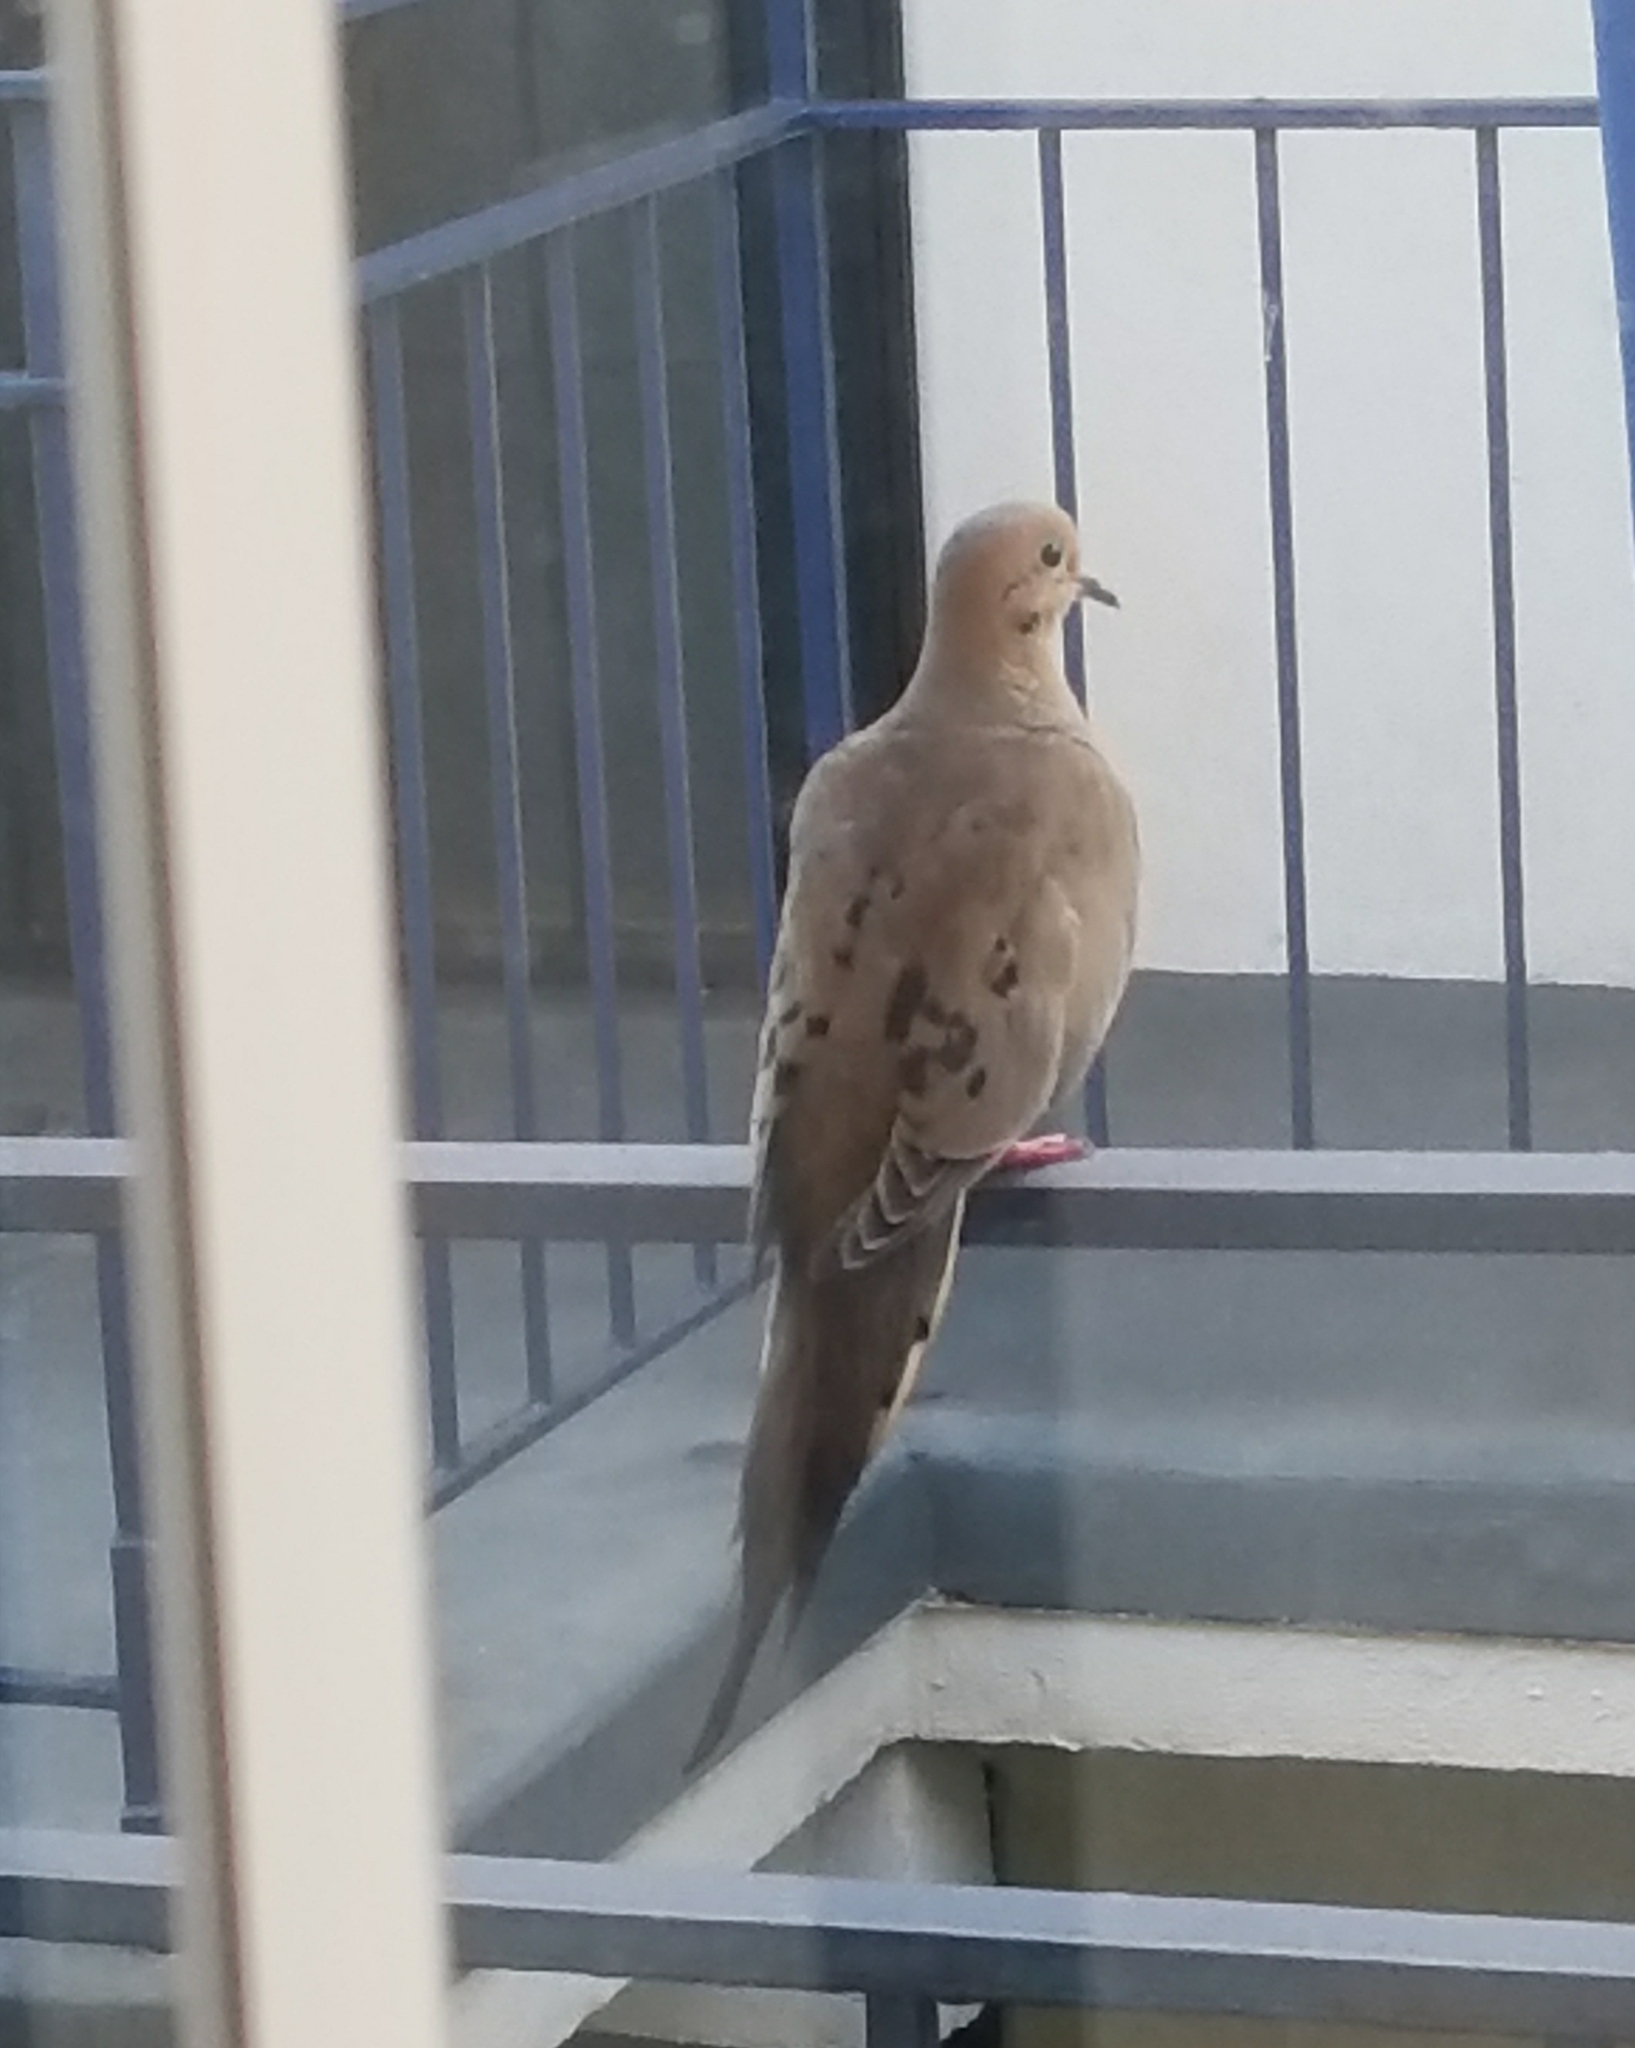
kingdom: Animalia
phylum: Chordata
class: Aves
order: Columbiformes
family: Columbidae
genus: Zenaida
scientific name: Zenaida macroura
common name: Mourning dove
